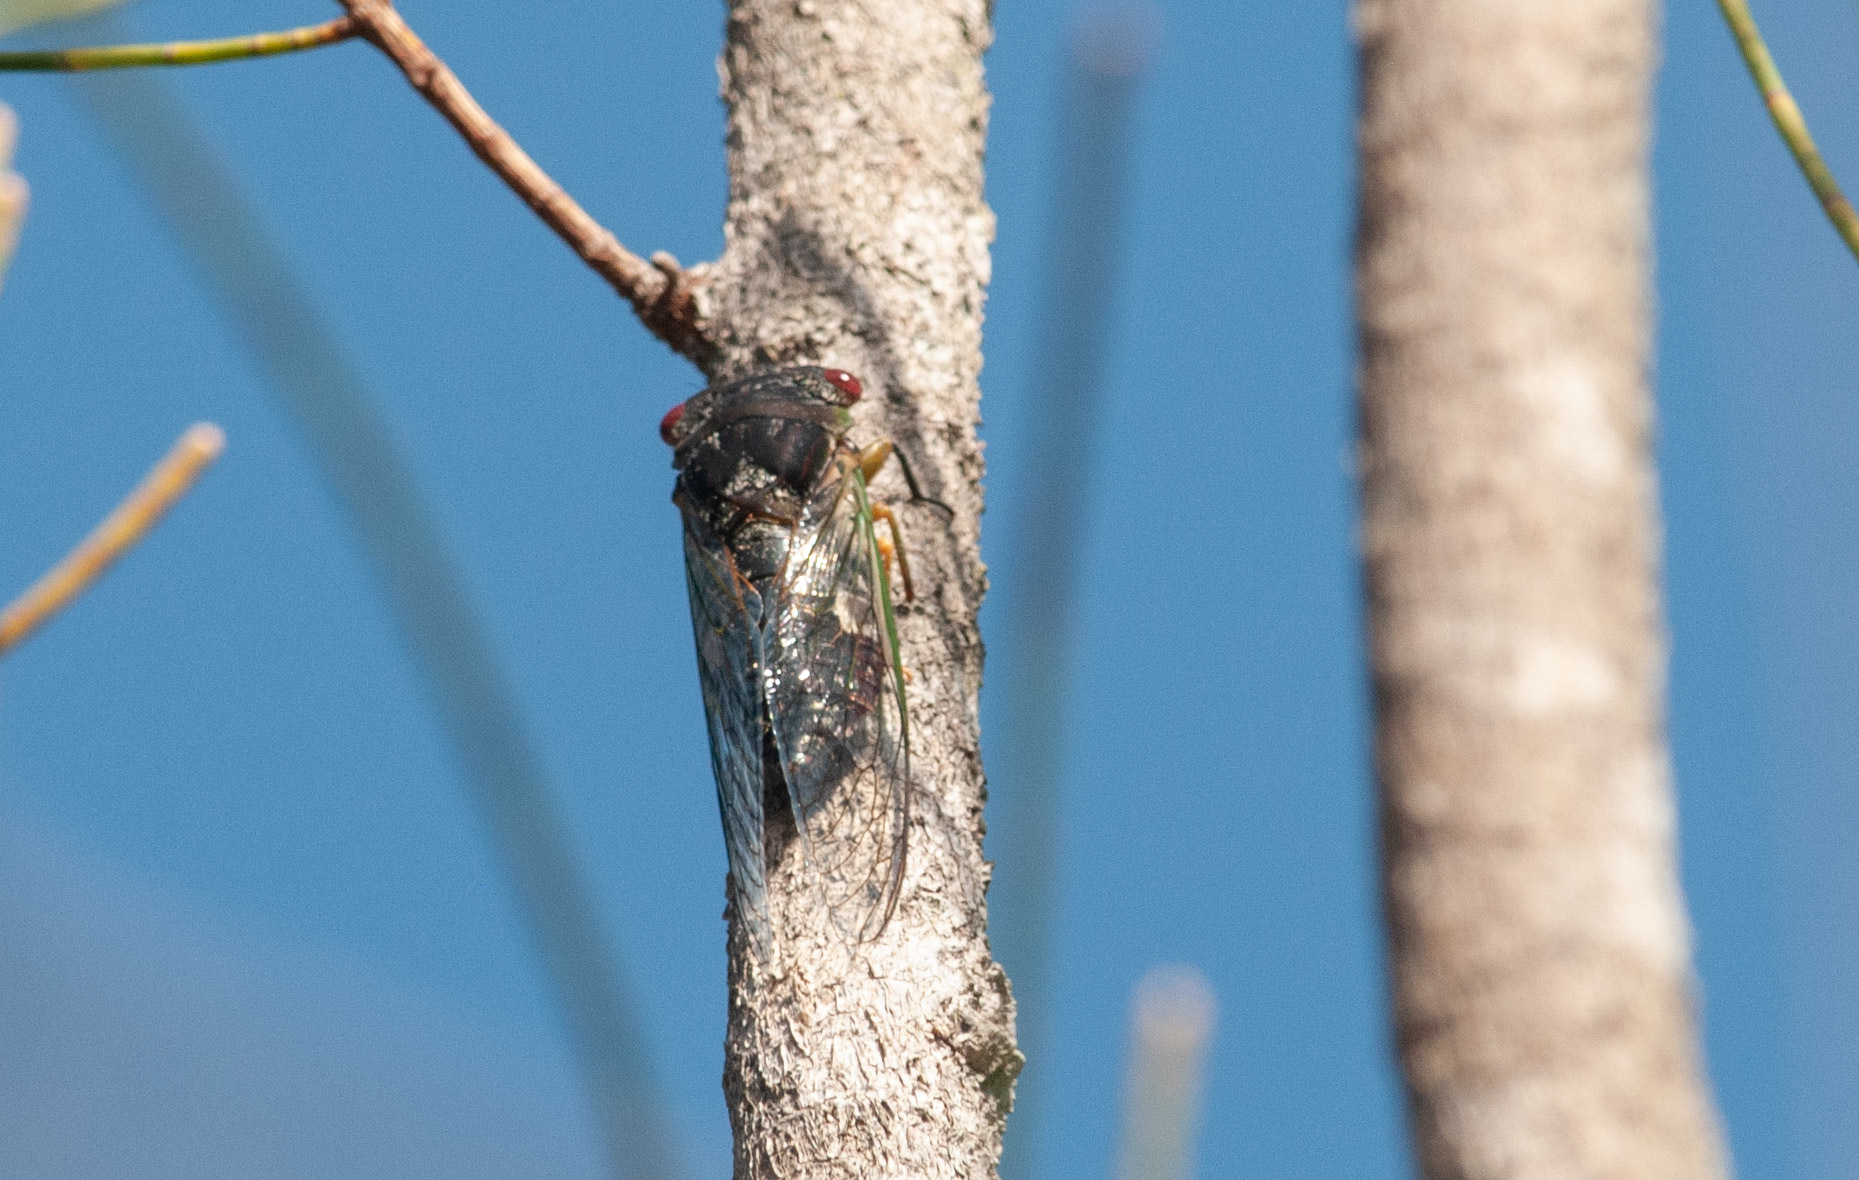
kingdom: Animalia
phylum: Arthropoda
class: Insecta
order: Hemiptera
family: Cicadidae
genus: Psaltoda
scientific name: Psaltoda claripennis
